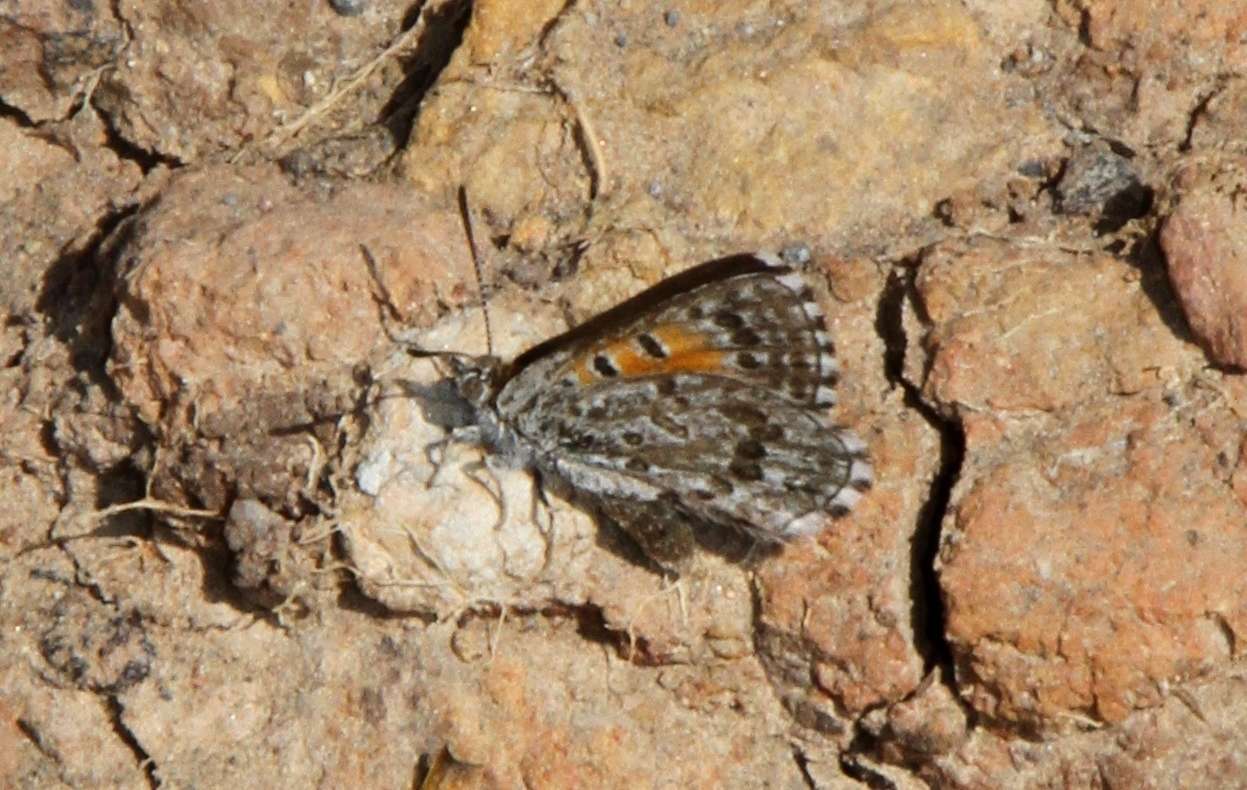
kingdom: Animalia
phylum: Arthropoda
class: Insecta
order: Lepidoptera
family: Lycaenidae
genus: Lucia
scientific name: Lucia limbaria
